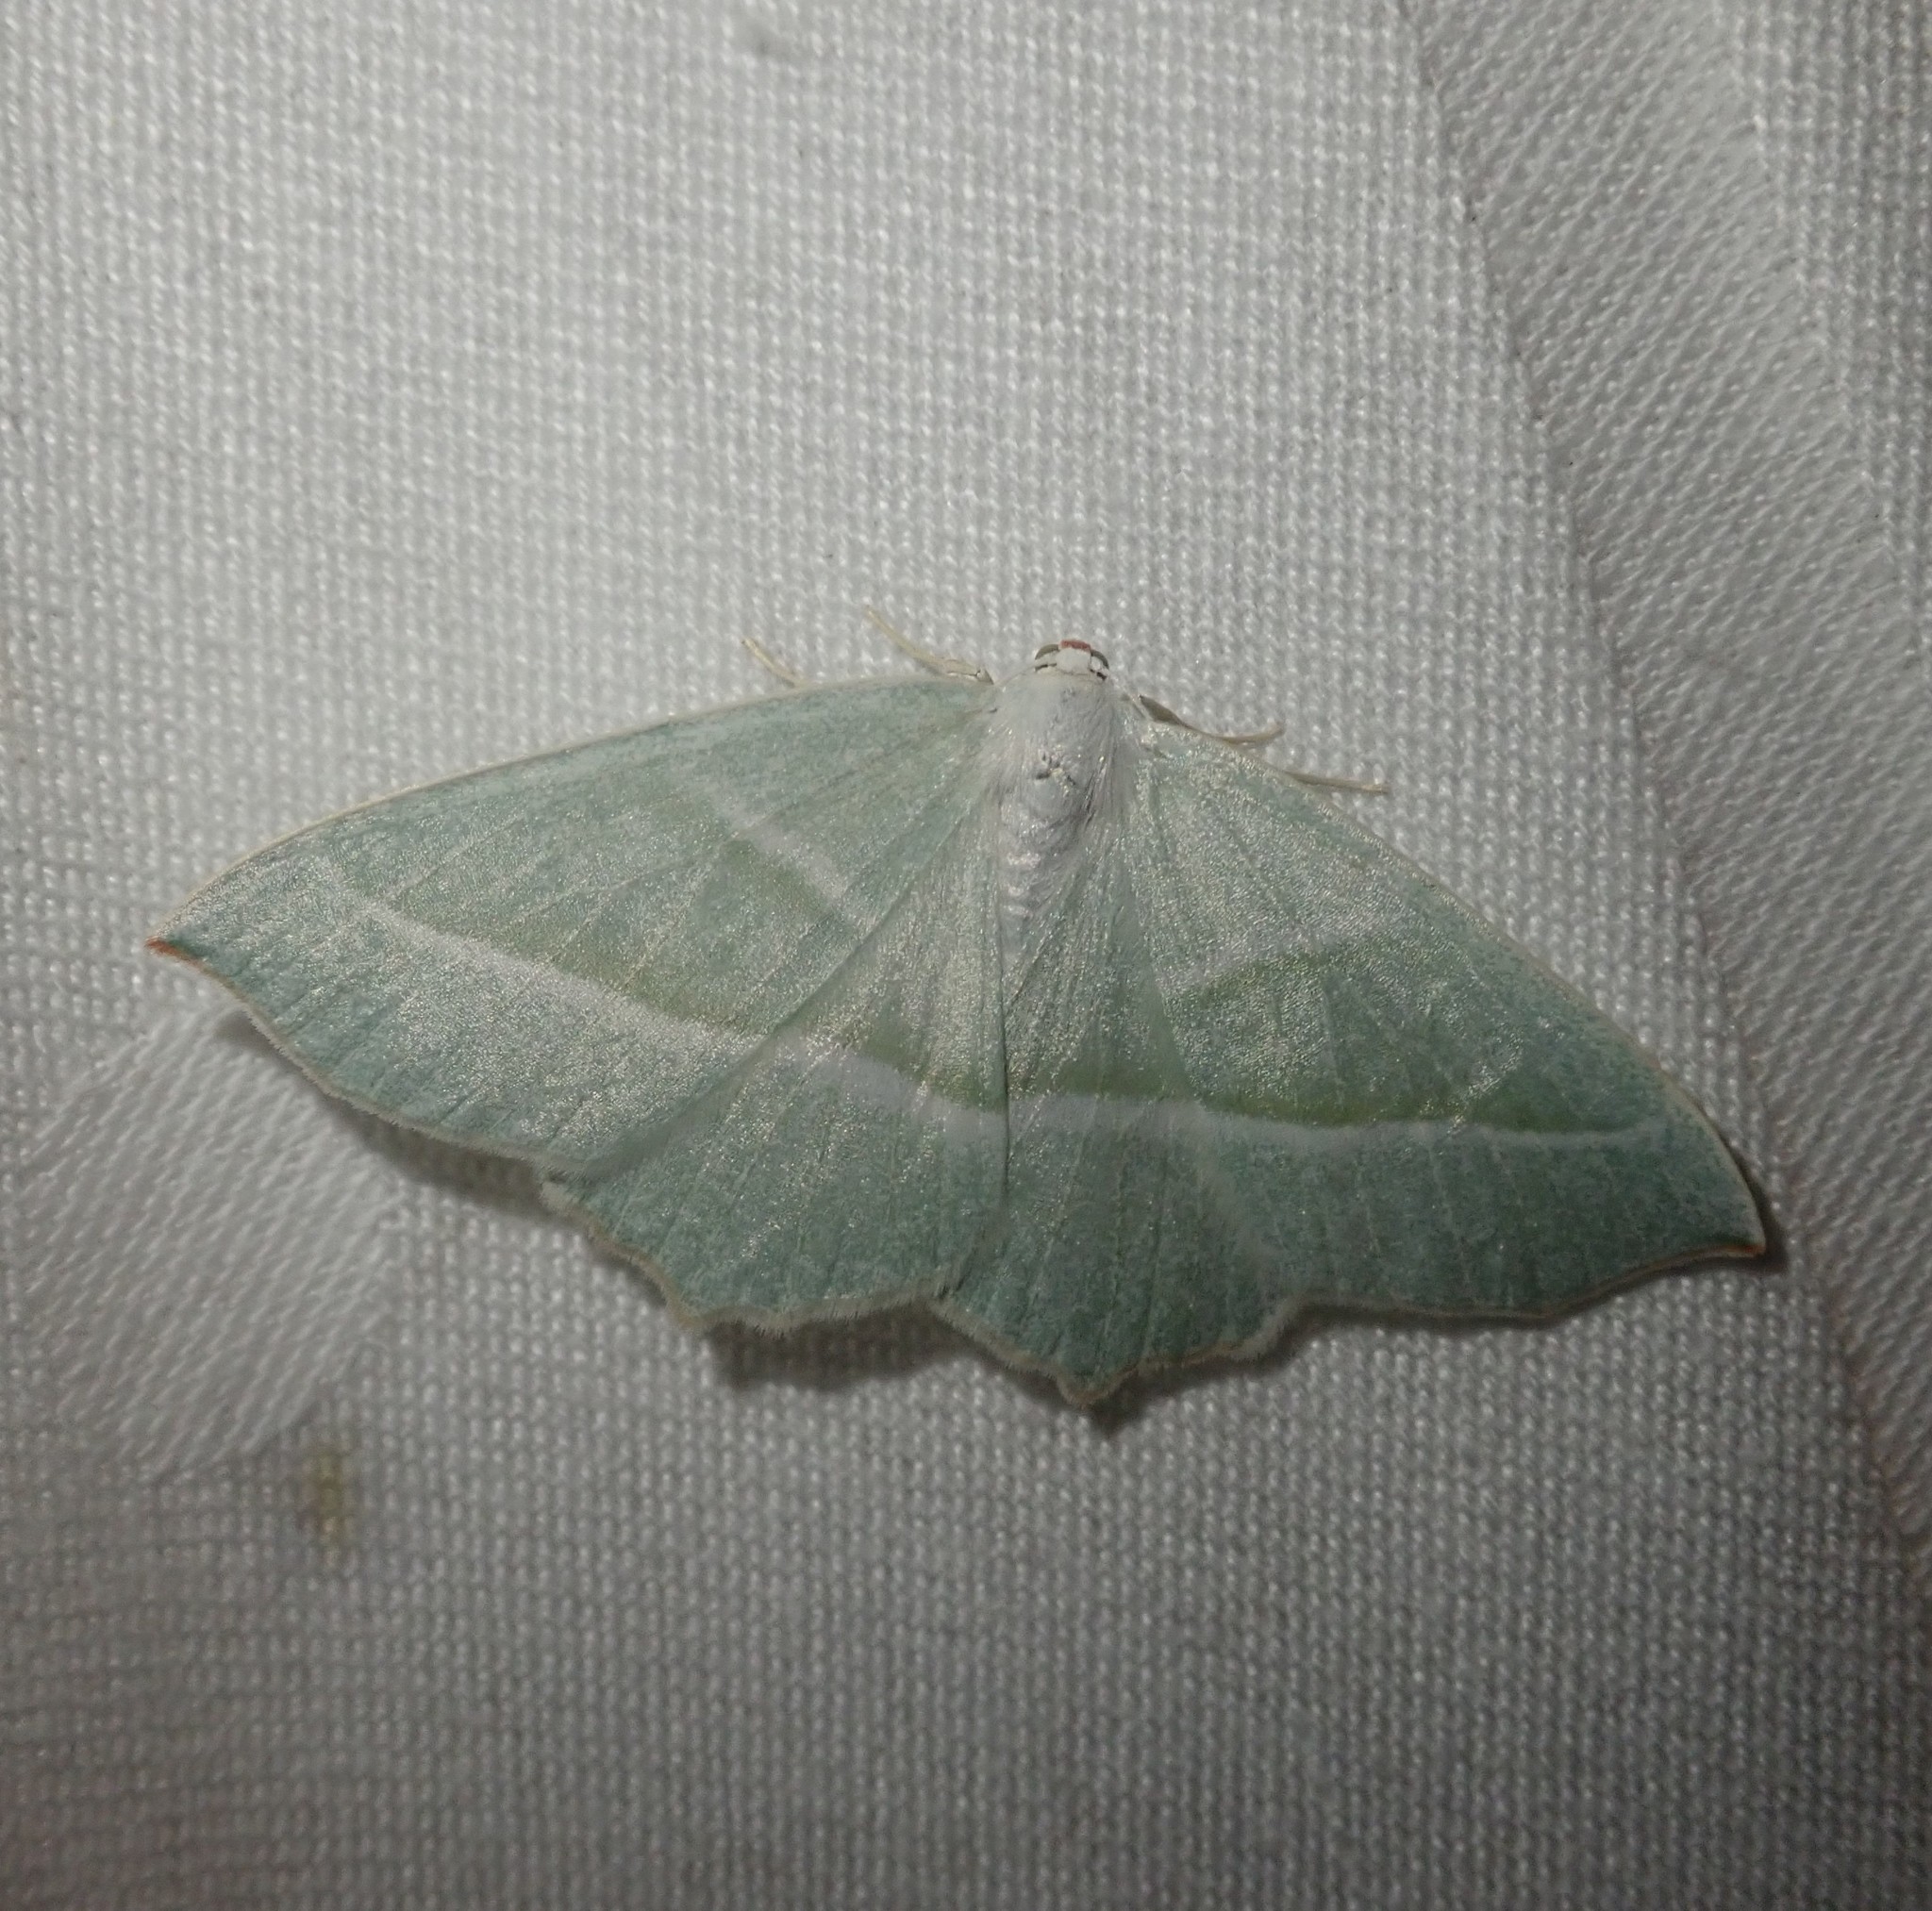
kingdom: Animalia
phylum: Arthropoda
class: Insecta
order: Lepidoptera
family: Geometridae
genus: Campaea
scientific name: Campaea margaritaria
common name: Light emerald
